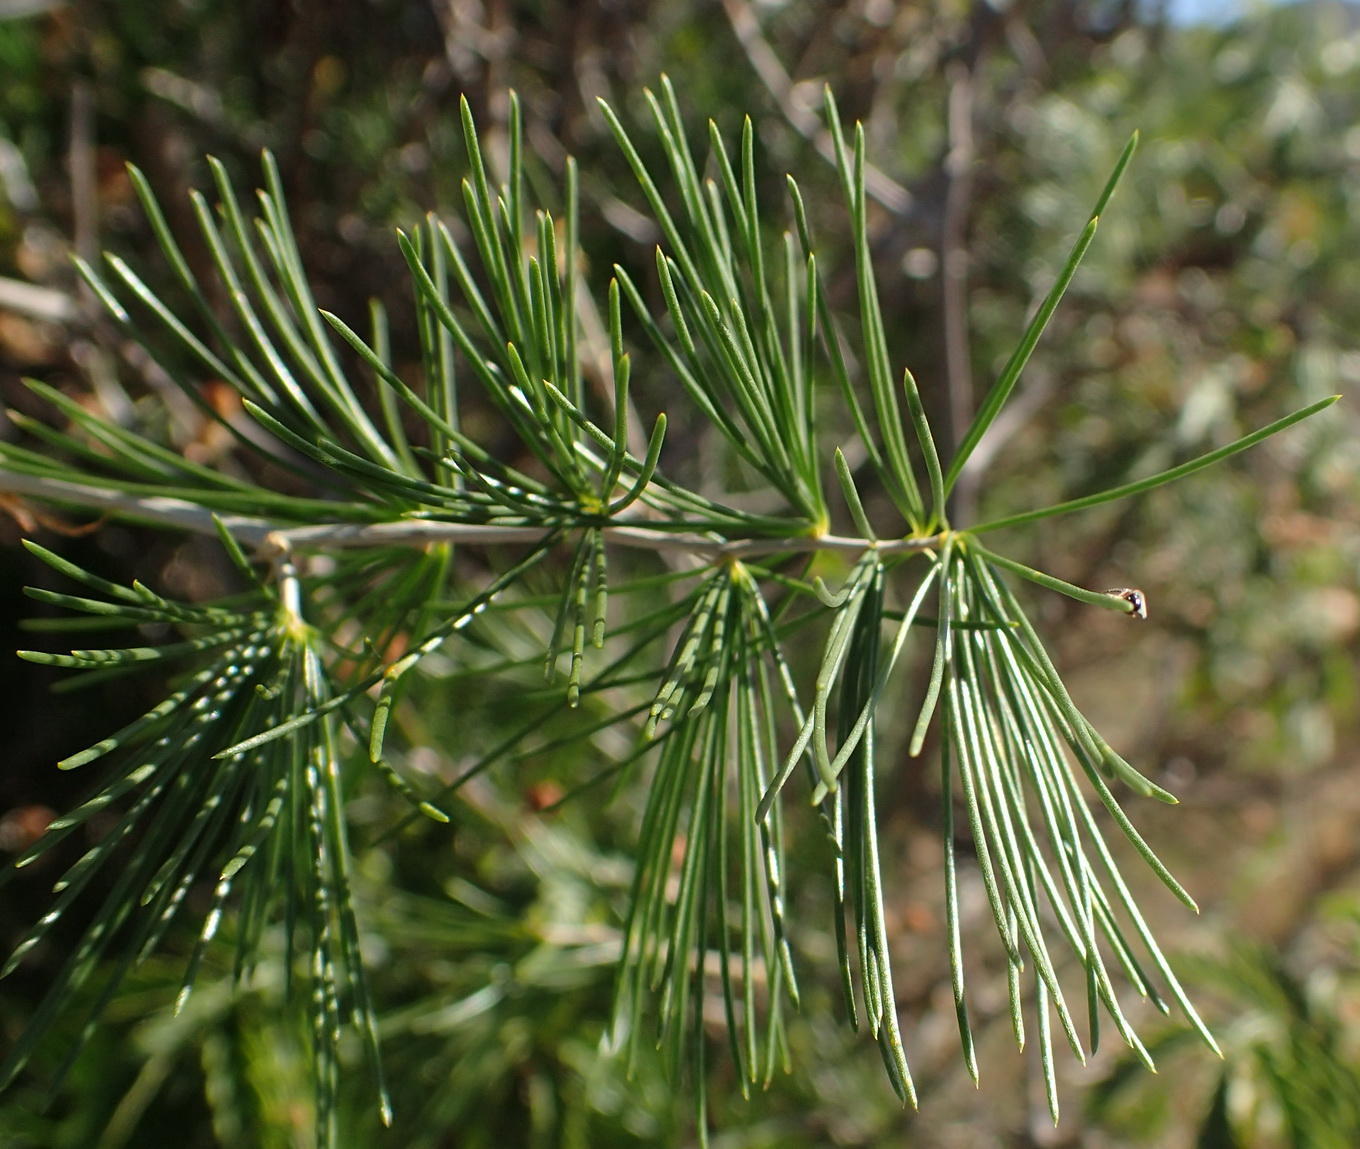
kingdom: Plantae
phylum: Tracheophyta
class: Liliopsida
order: Asparagales
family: Asparagaceae
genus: Asparagus
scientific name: Asparagus retrofractus
